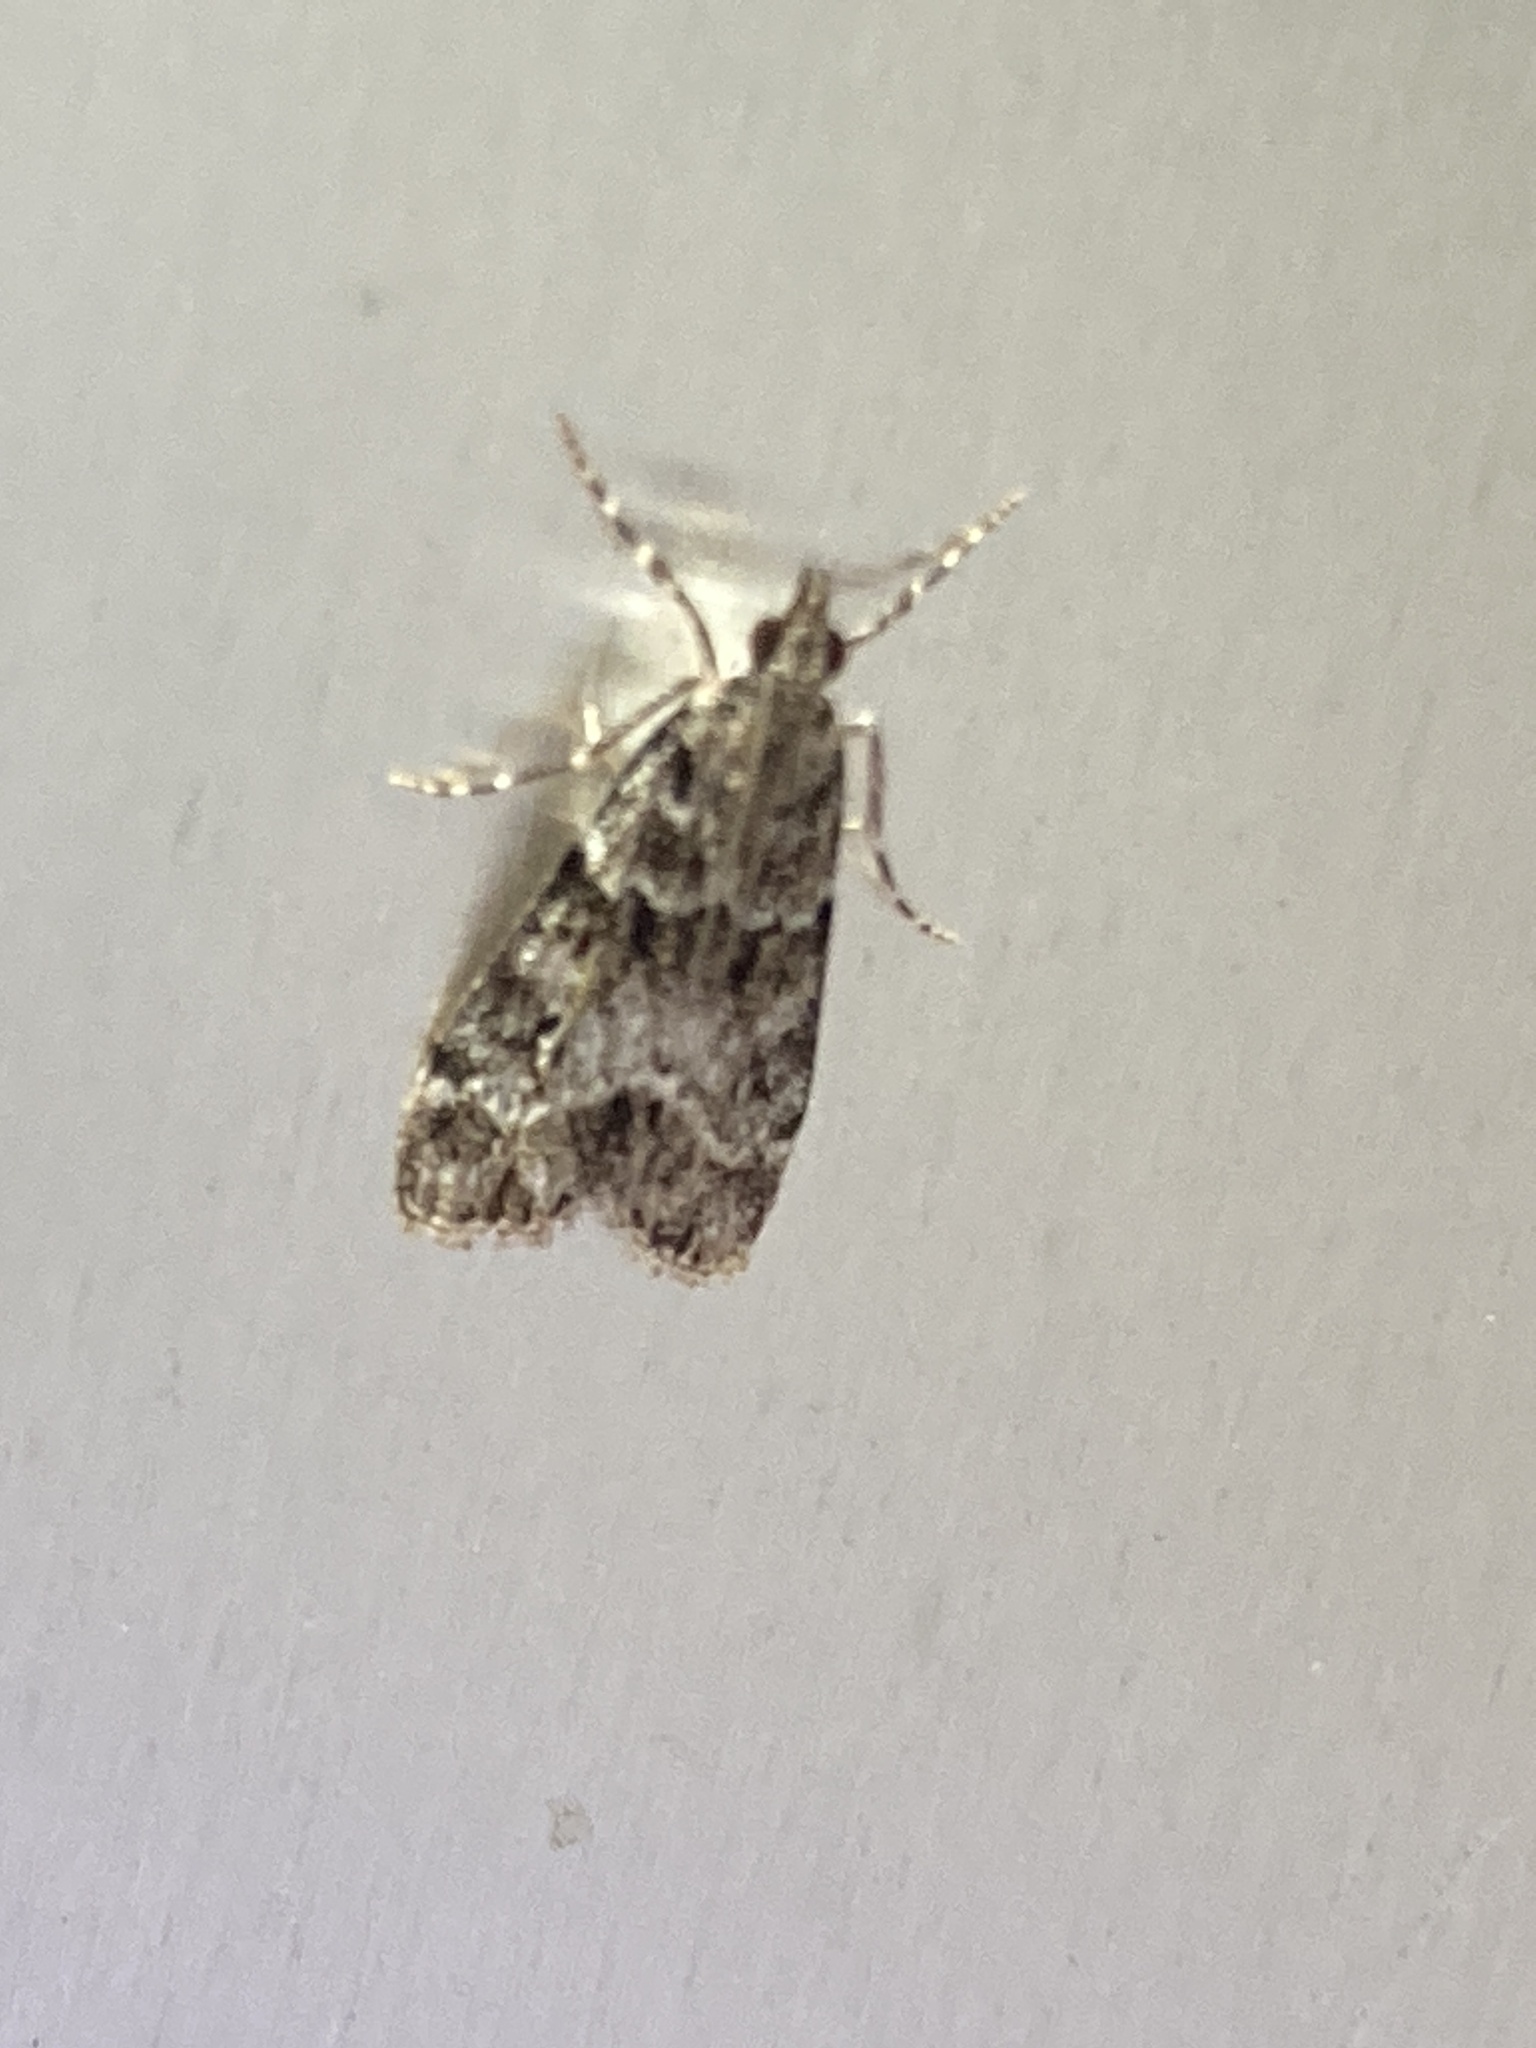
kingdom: Animalia
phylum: Arthropoda
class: Insecta
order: Lepidoptera
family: Crambidae
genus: Eudonia
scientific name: Eudonia mercurella
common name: Small grey
